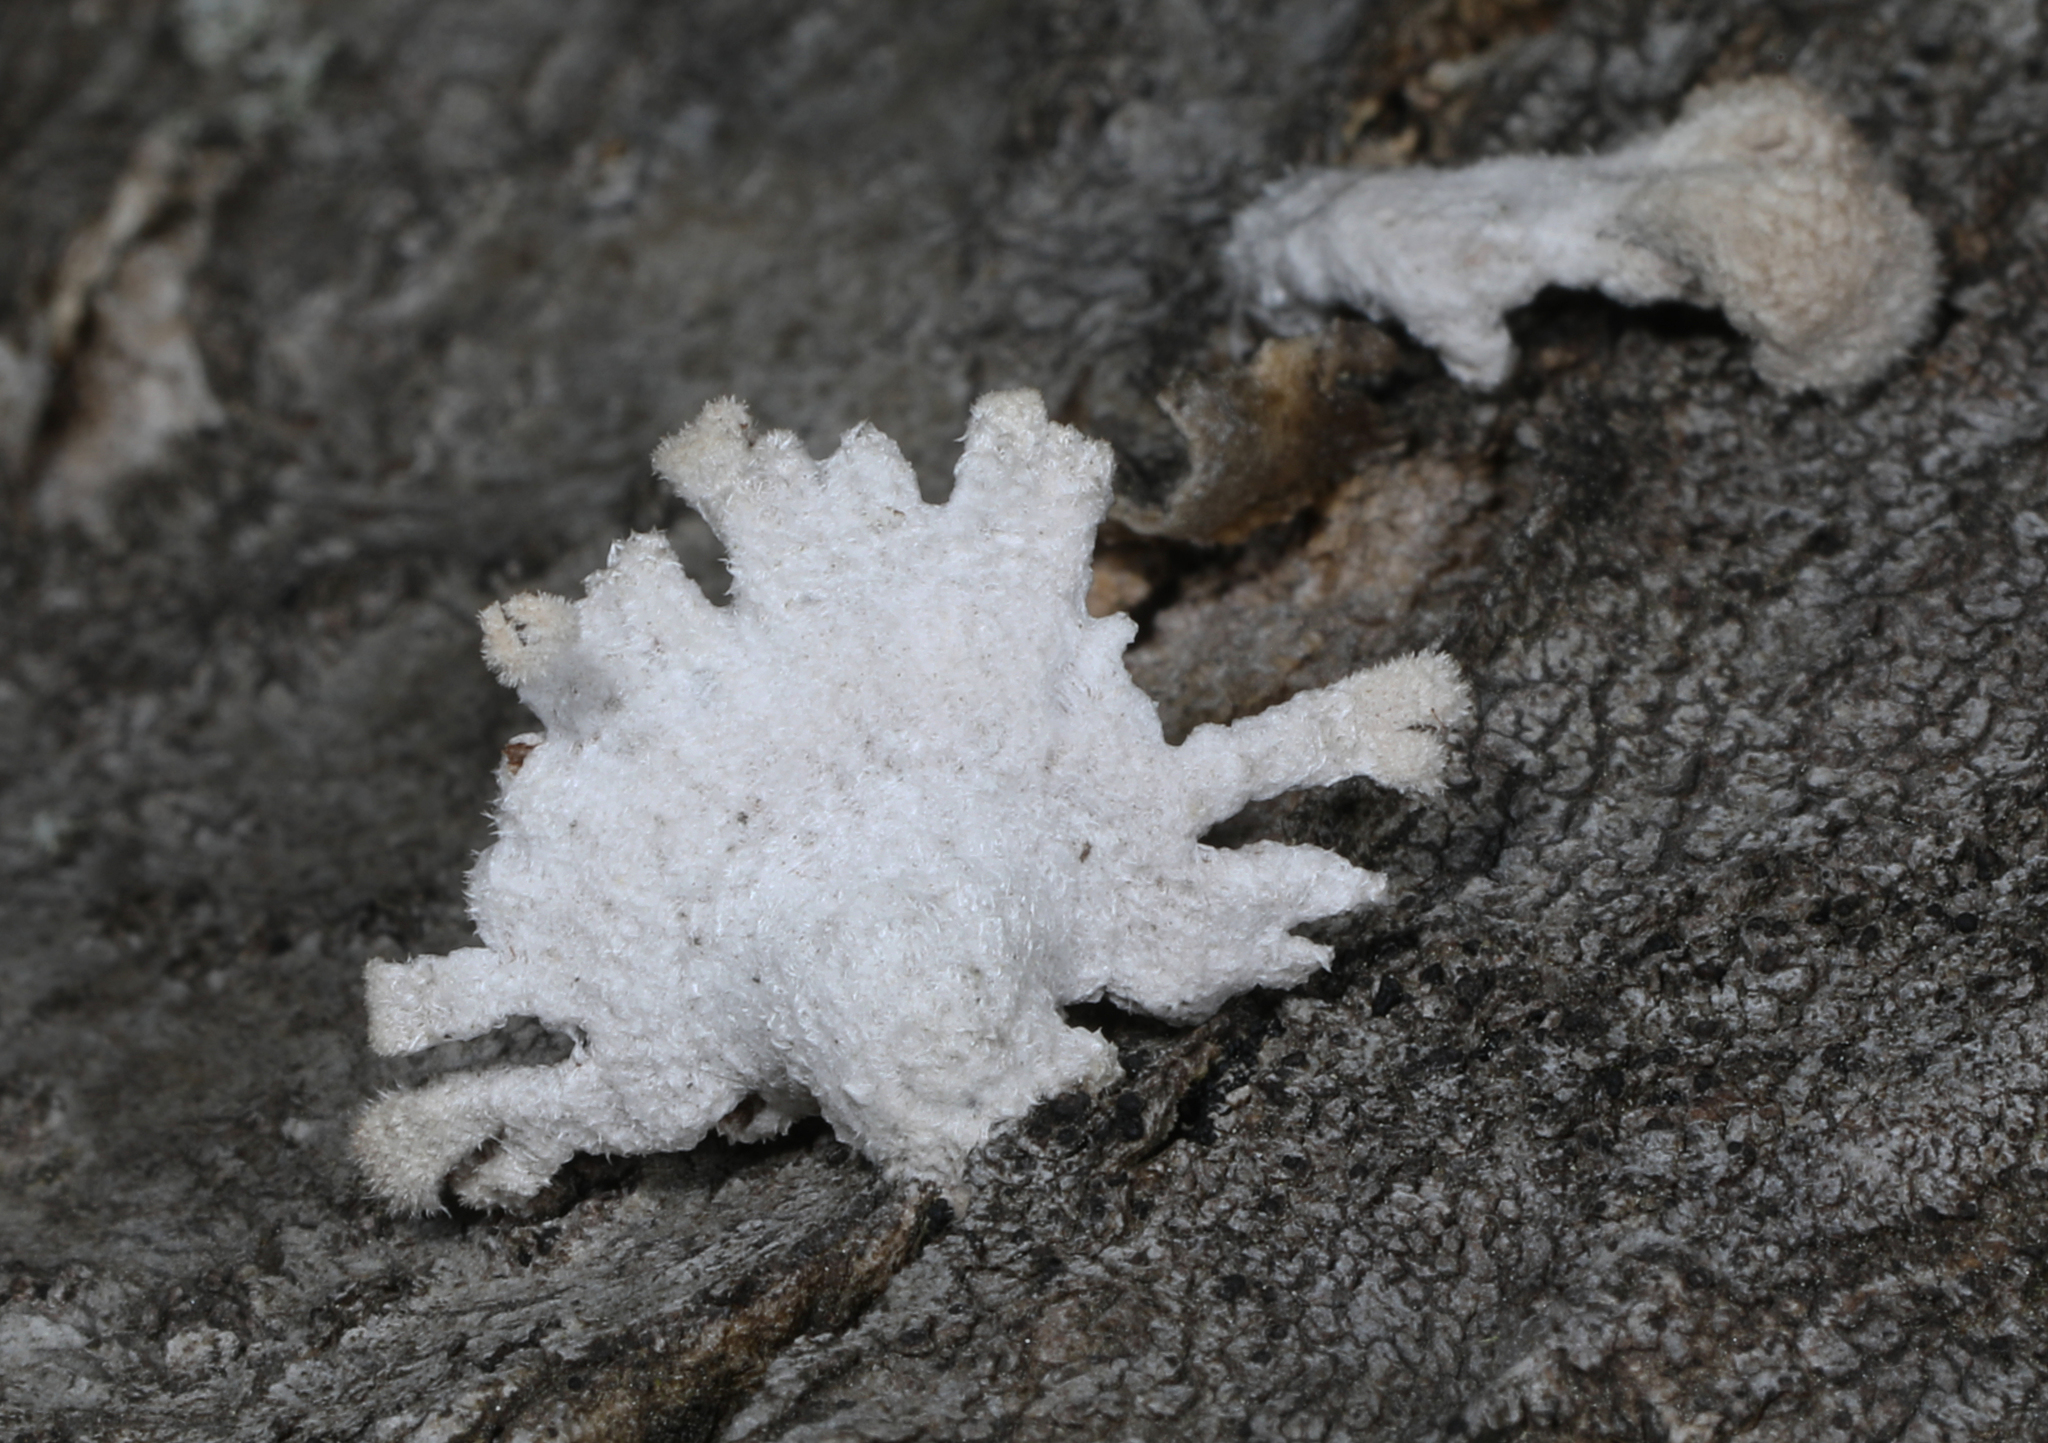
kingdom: Fungi
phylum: Basidiomycota
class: Agaricomycetes
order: Agaricales
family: Schizophyllaceae
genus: Schizophyllum
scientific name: Schizophyllum commune
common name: Common porecrust
